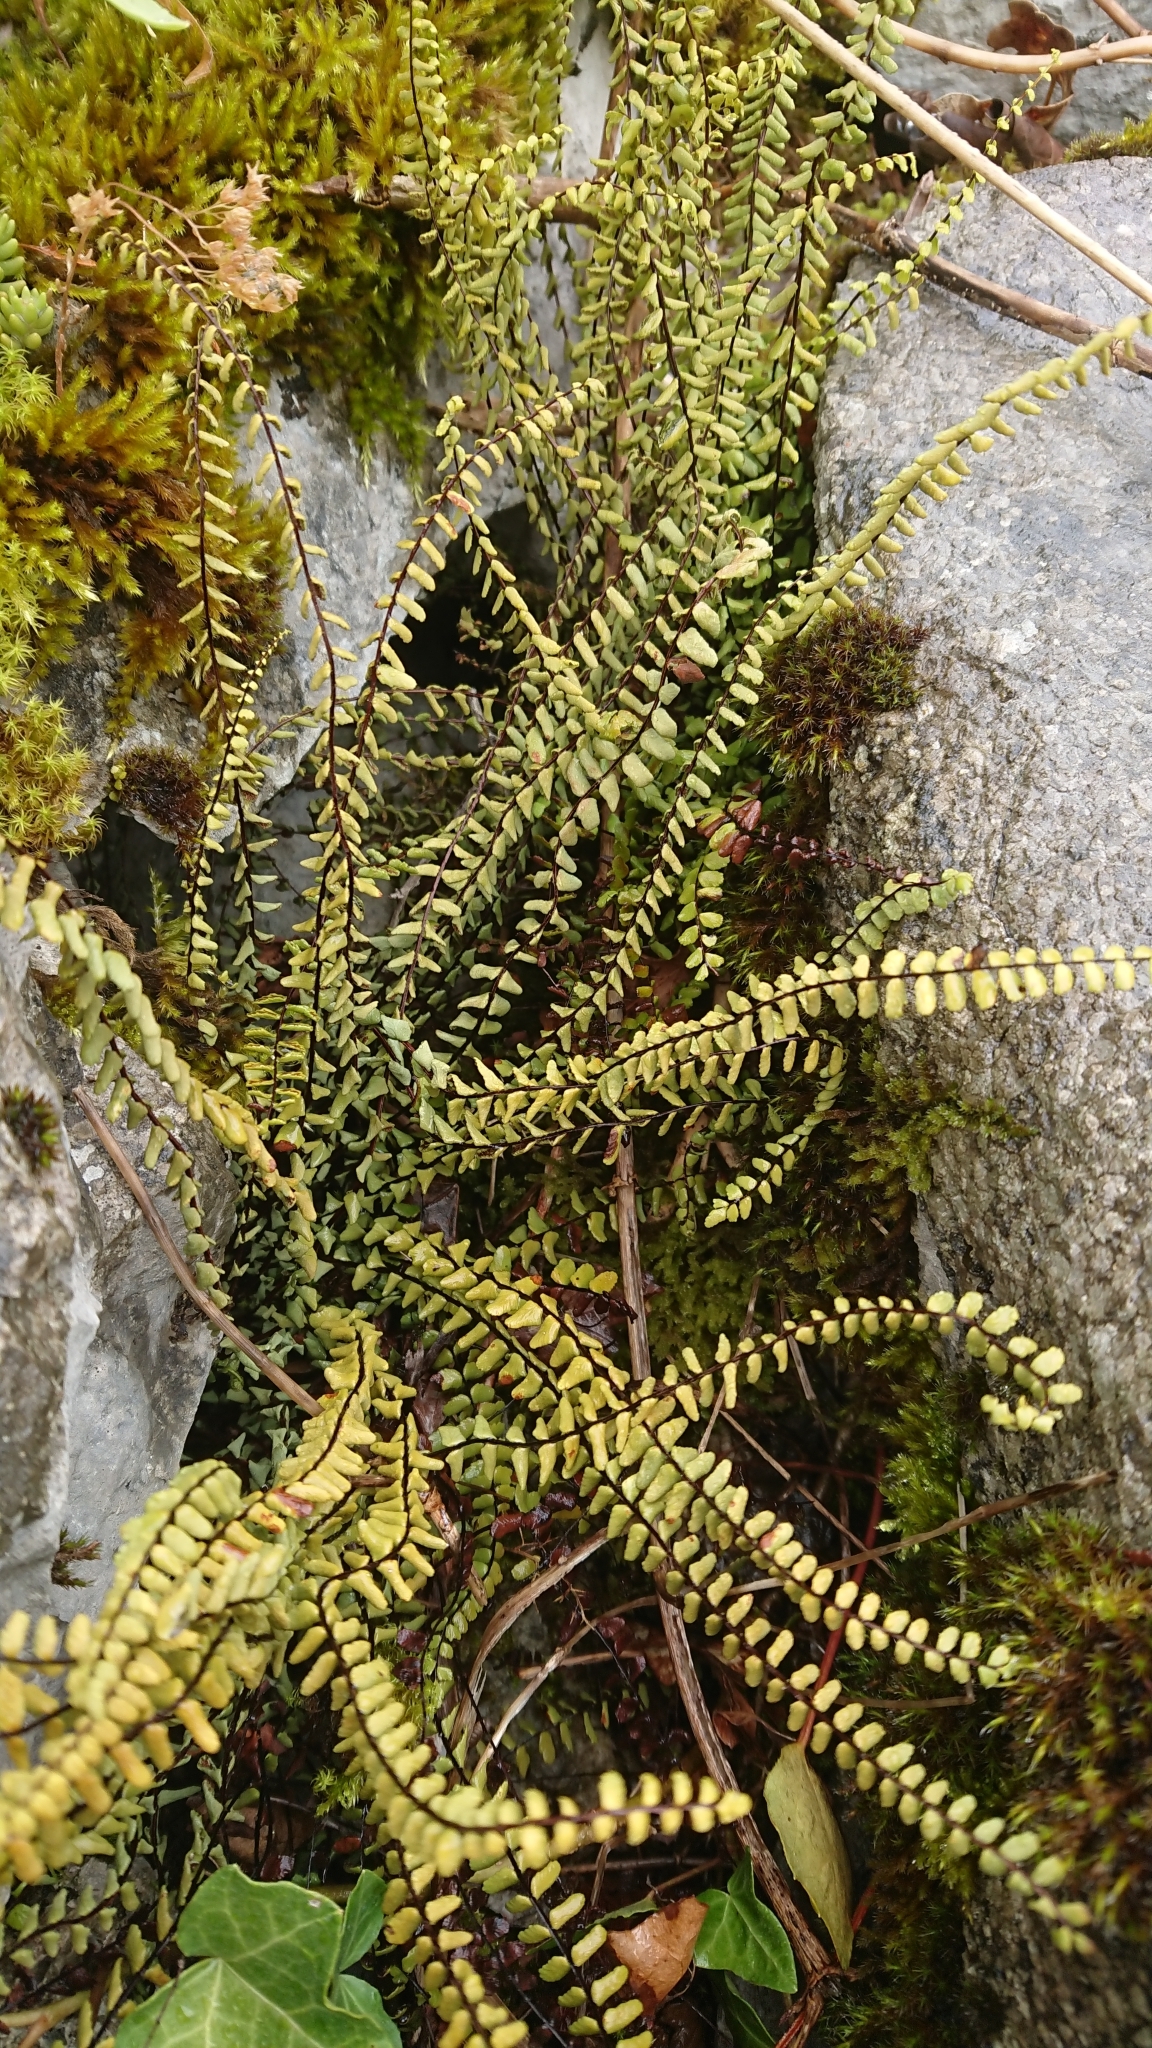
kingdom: Plantae
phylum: Tracheophyta
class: Polypodiopsida
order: Polypodiales
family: Aspleniaceae
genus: Asplenium
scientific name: Asplenium trichomanes
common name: Maidenhair spleenwort
